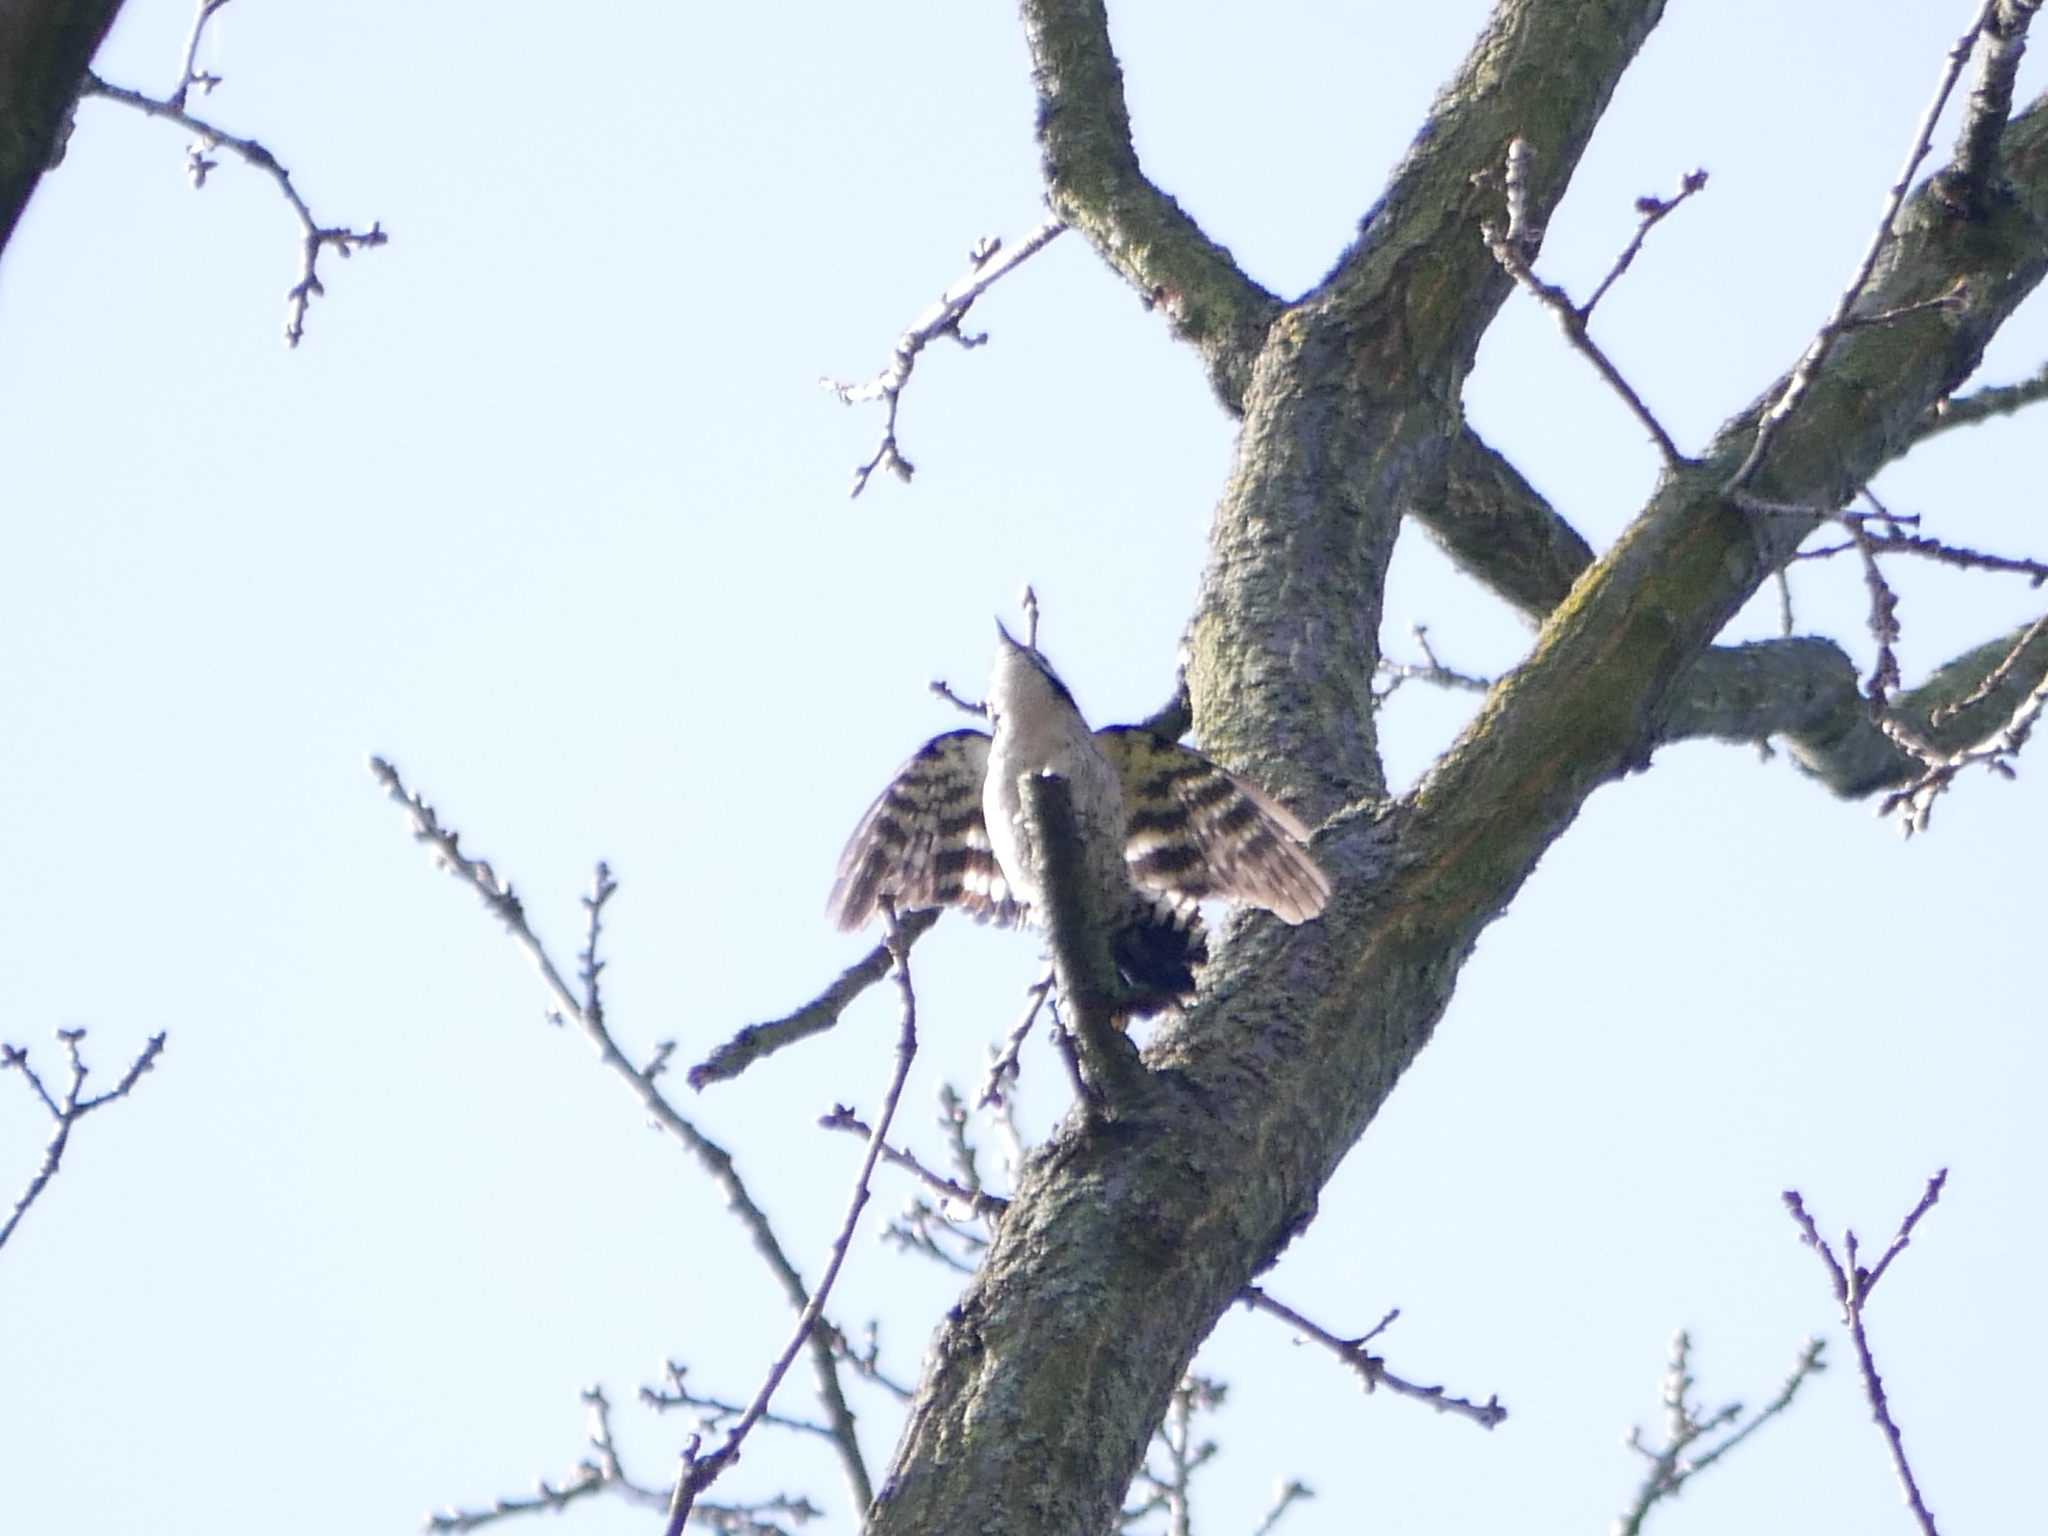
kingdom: Animalia
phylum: Chordata
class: Aves
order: Piciformes
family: Picidae
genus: Dryobates
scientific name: Dryobates minor
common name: Lesser spotted woodpecker
